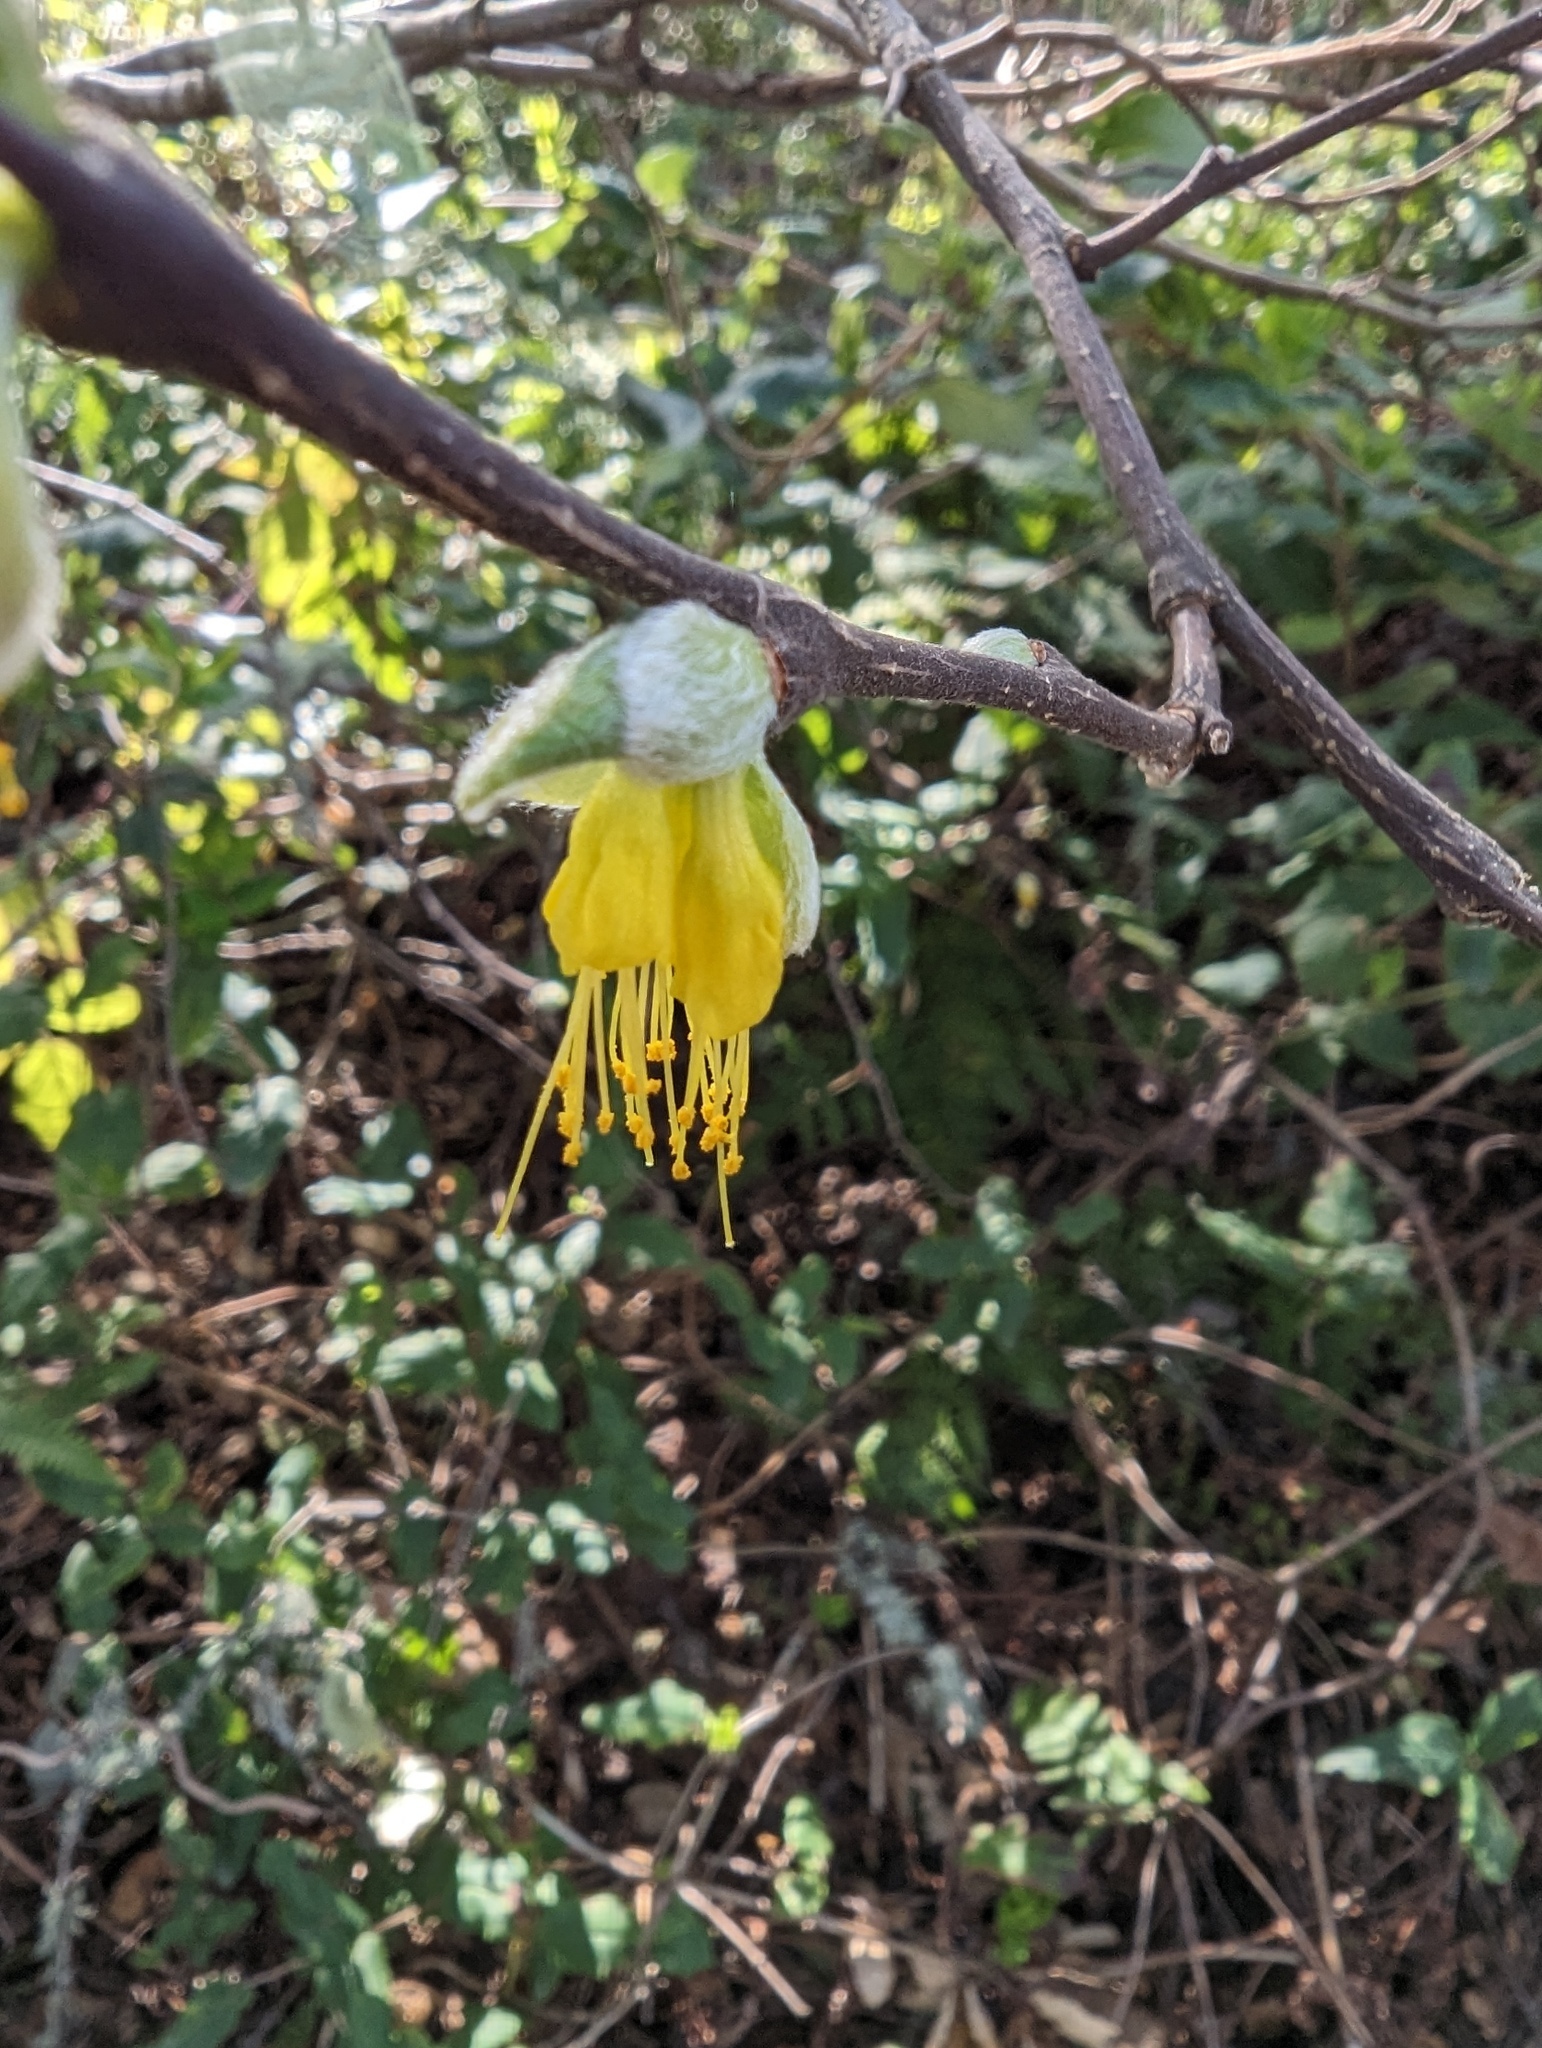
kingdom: Plantae
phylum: Tracheophyta
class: Magnoliopsida
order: Malvales
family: Thymelaeaceae
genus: Dirca
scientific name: Dirca occidentalis
